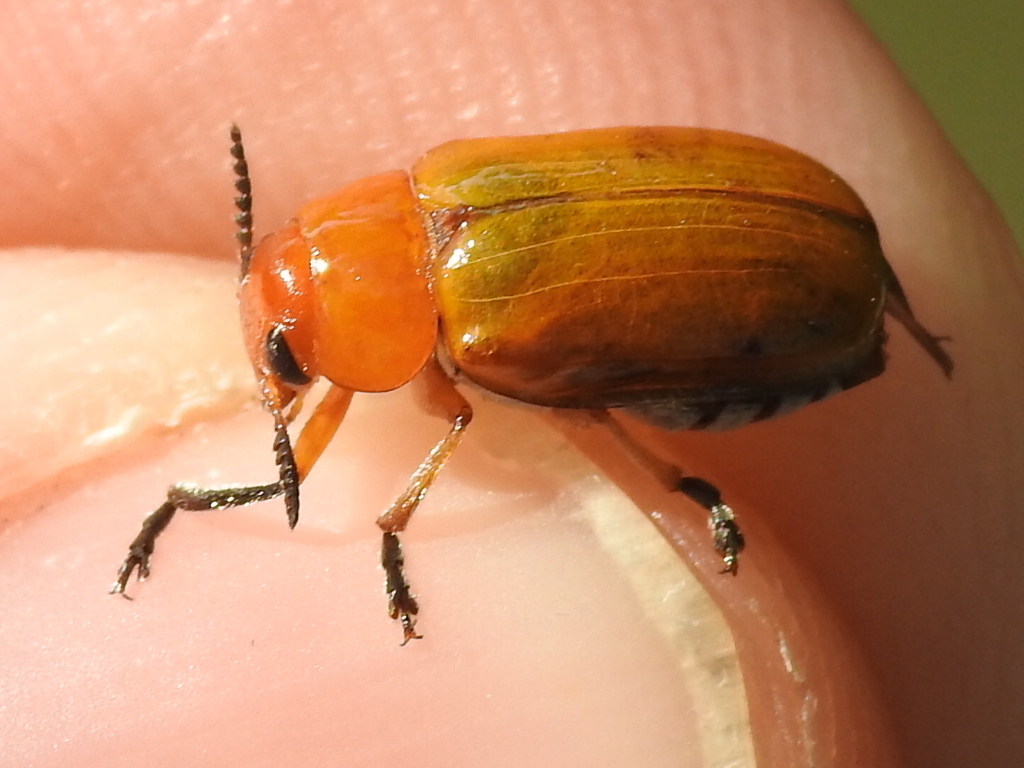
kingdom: Animalia
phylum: Arthropoda
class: Insecta
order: Coleoptera
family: Chrysomelidae
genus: Anomoea
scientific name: Anomoea laticlavia
